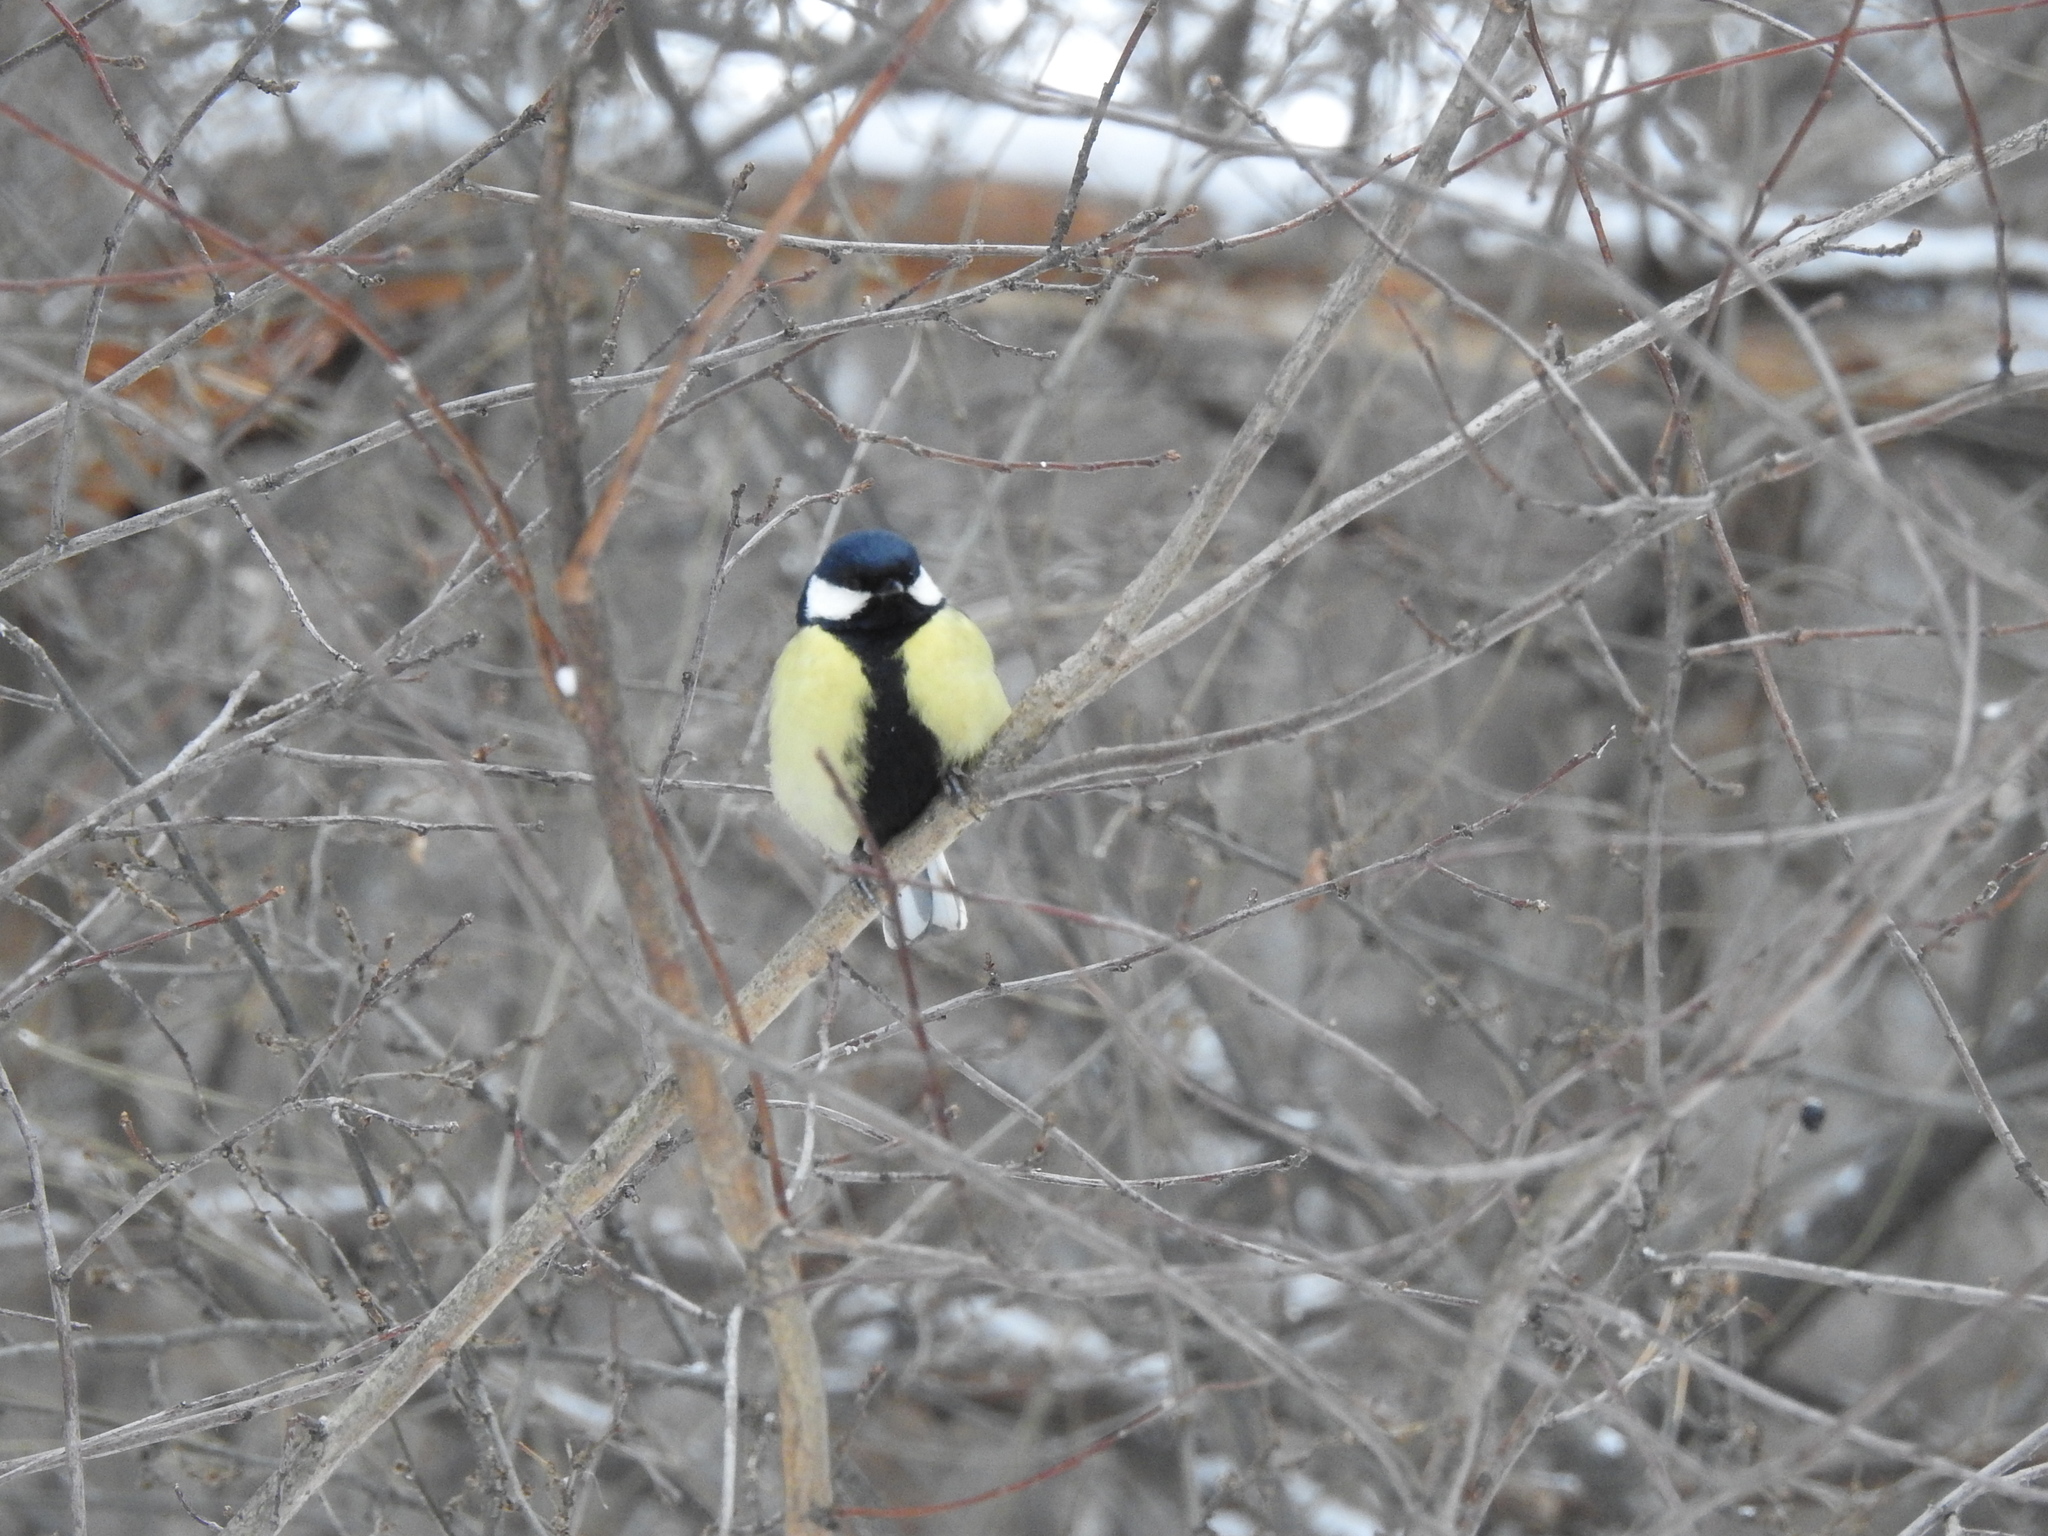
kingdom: Animalia
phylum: Chordata
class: Aves
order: Passeriformes
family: Paridae
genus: Parus
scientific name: Parus major
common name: Great tit
